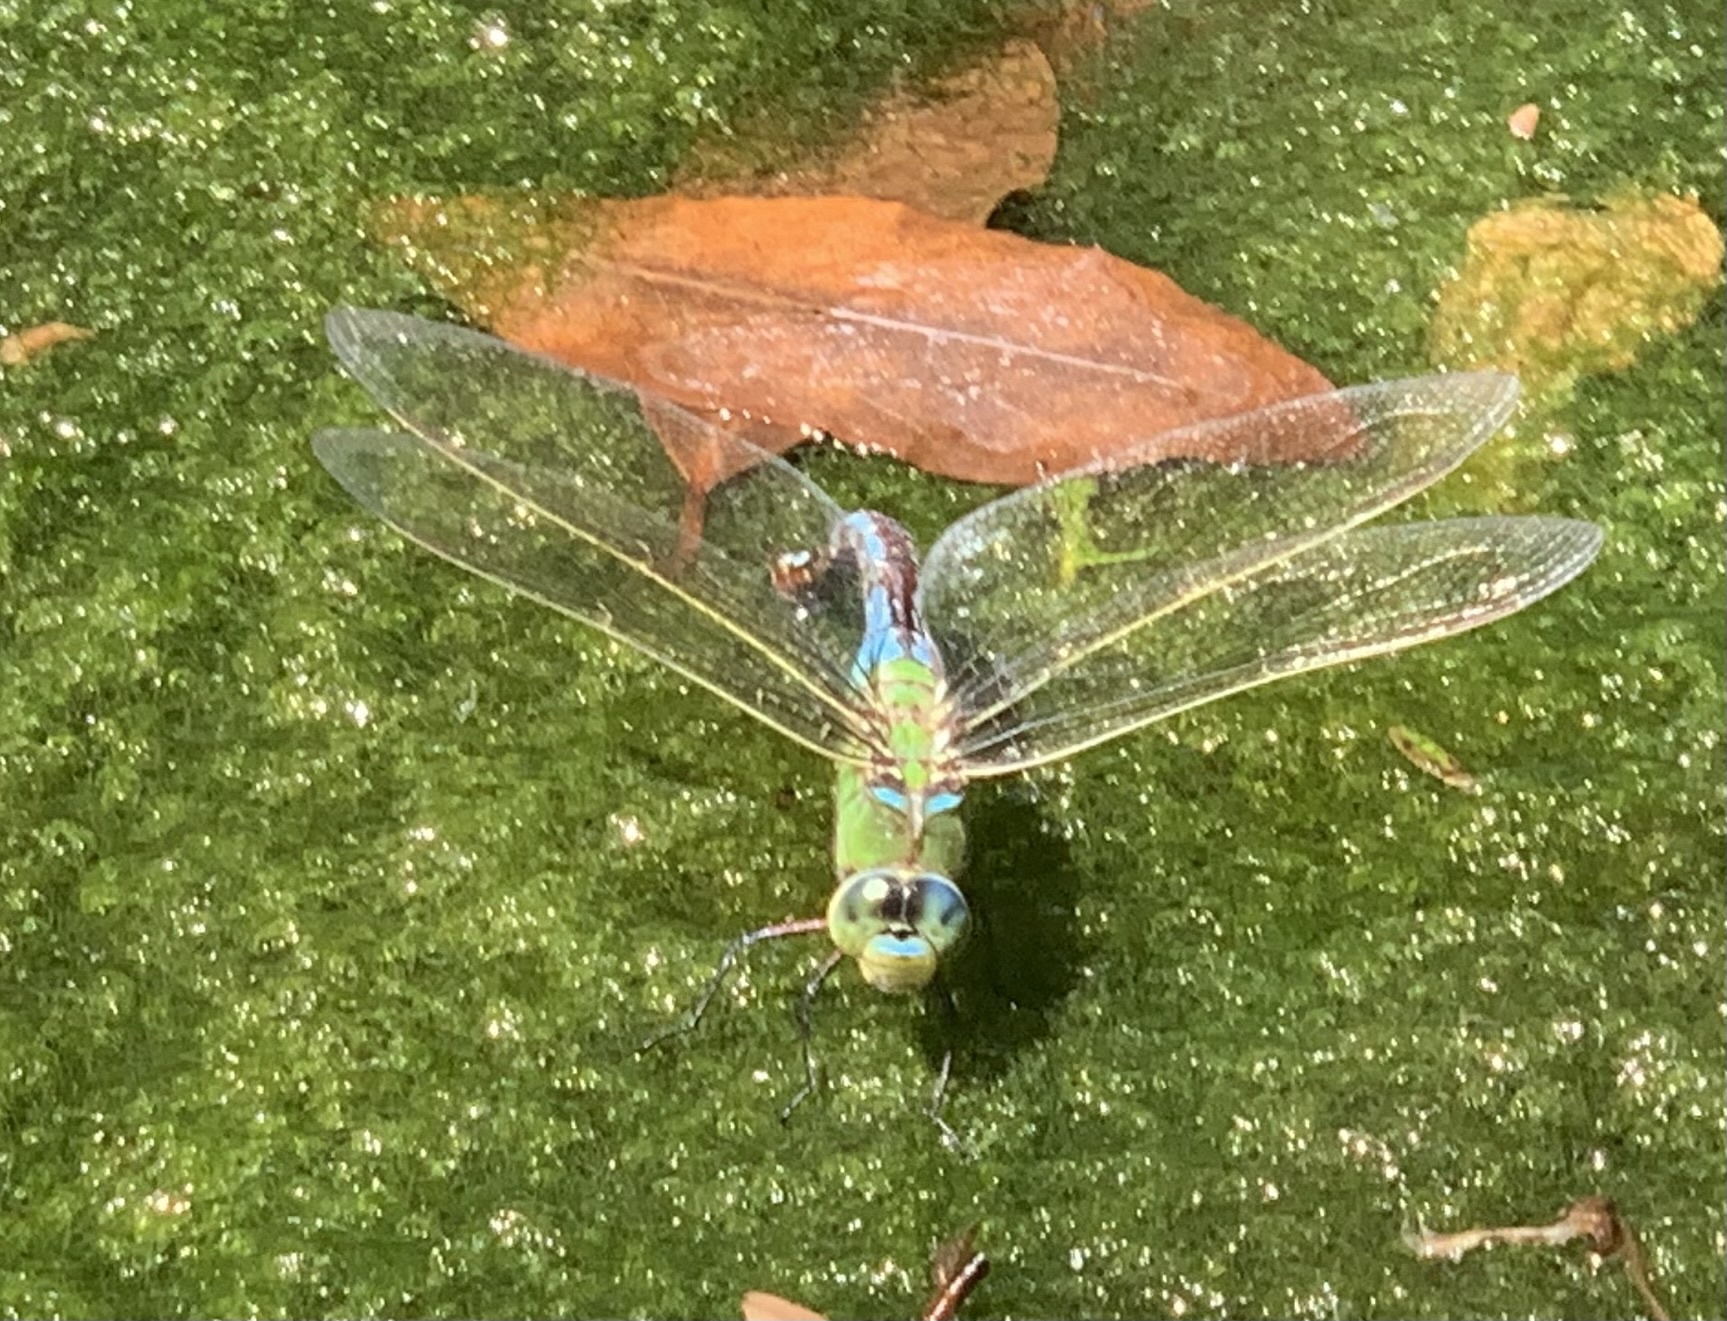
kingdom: Animalia
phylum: Arthropoda
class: Insecta
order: Odonata
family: Aeshnidae
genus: Anax
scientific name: Anax imperator
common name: Emperor dragonfly
